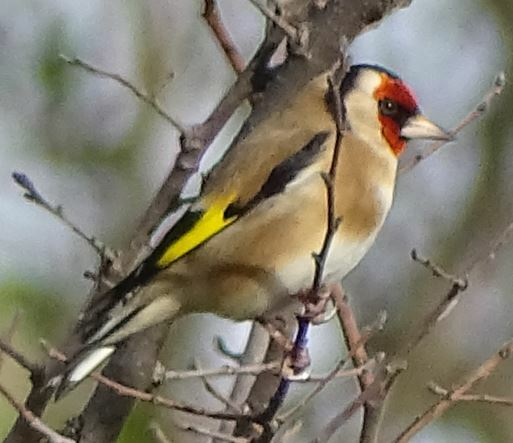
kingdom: Animalia
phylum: Chordata
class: Aves
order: Passeriformes
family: Fringillidae
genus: Carduelis
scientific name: Carduelis carduelis
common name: European goldfinch
